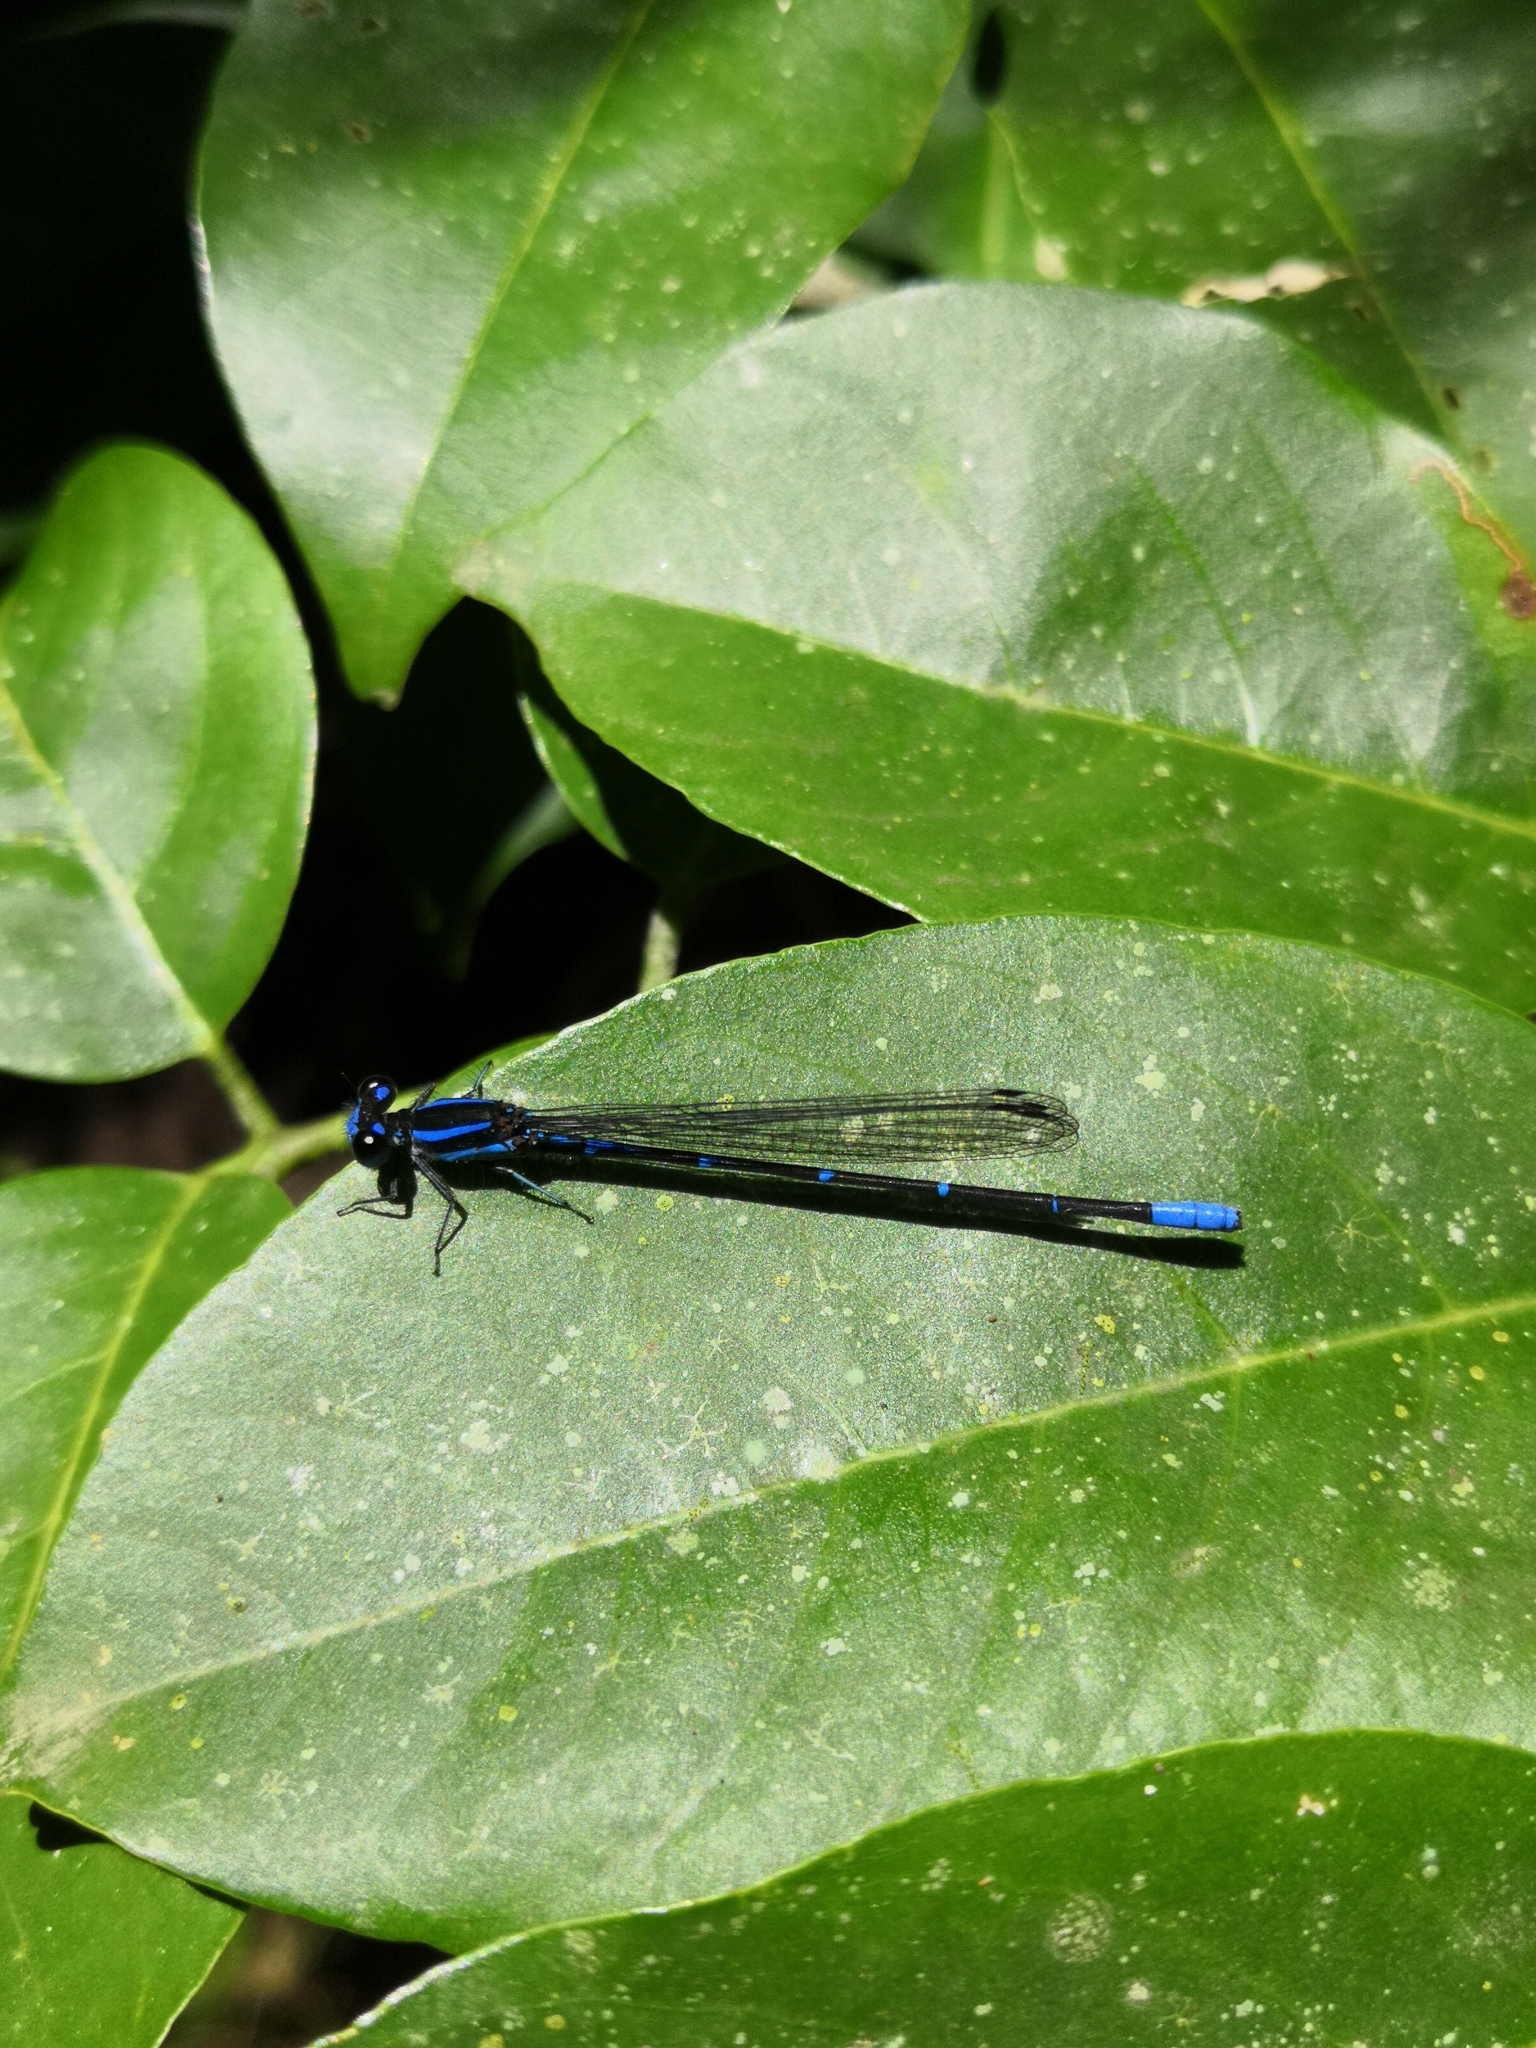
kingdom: Animalia
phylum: Arthropoda
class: Insecta
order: Odonata
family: Coenagrionidae
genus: Argia
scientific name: Argia oculata
